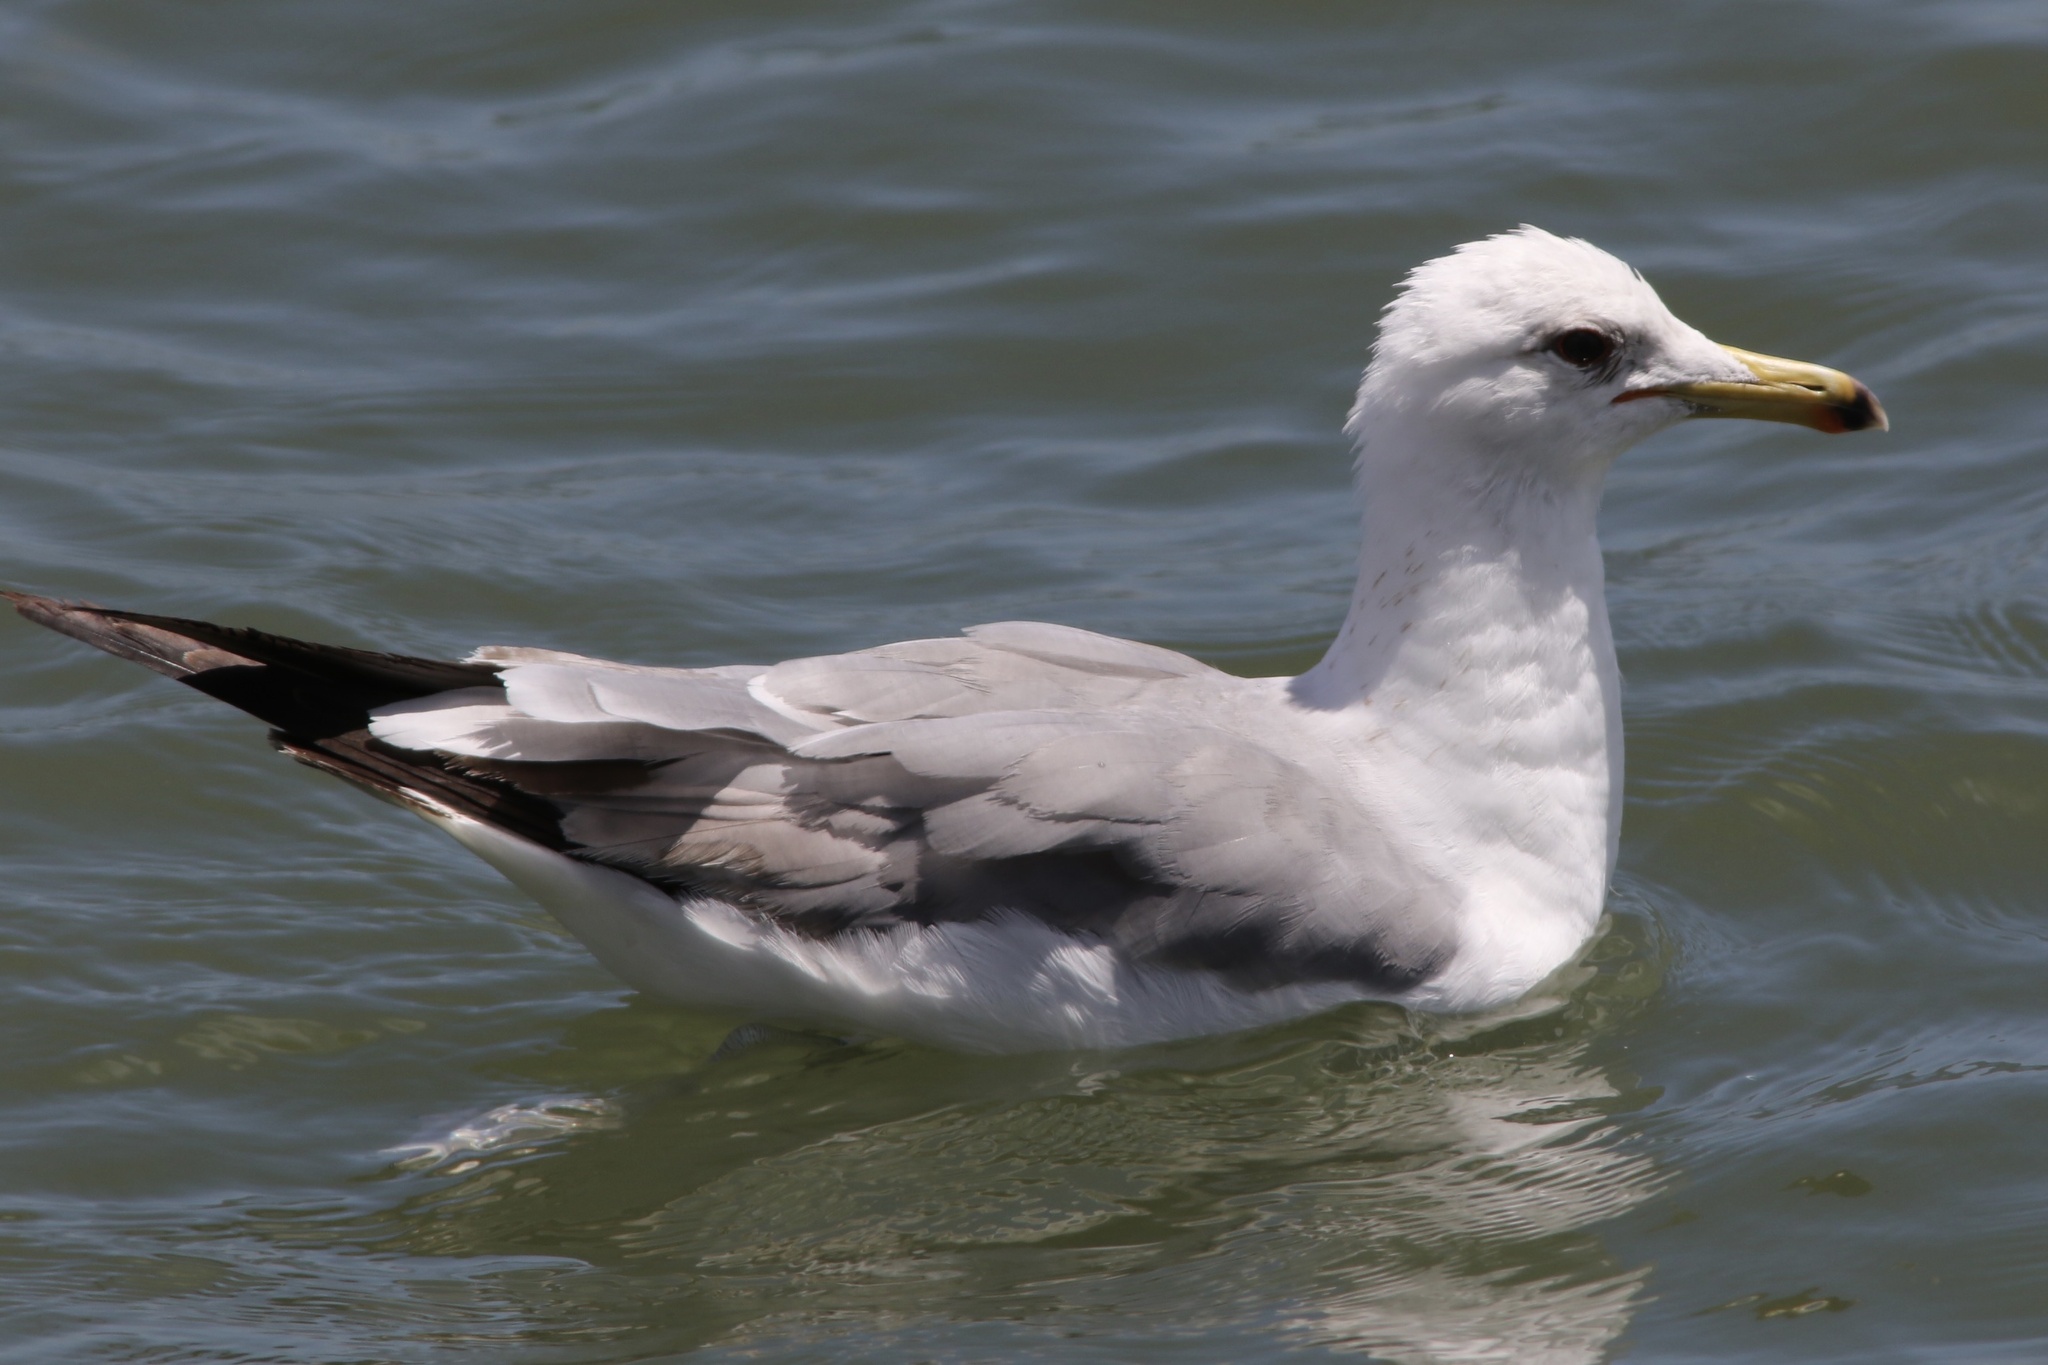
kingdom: Animalia
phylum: Chordata
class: Aves
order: Charadriiformes
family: Laridae
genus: Larus
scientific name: Larus californicus
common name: California gull
